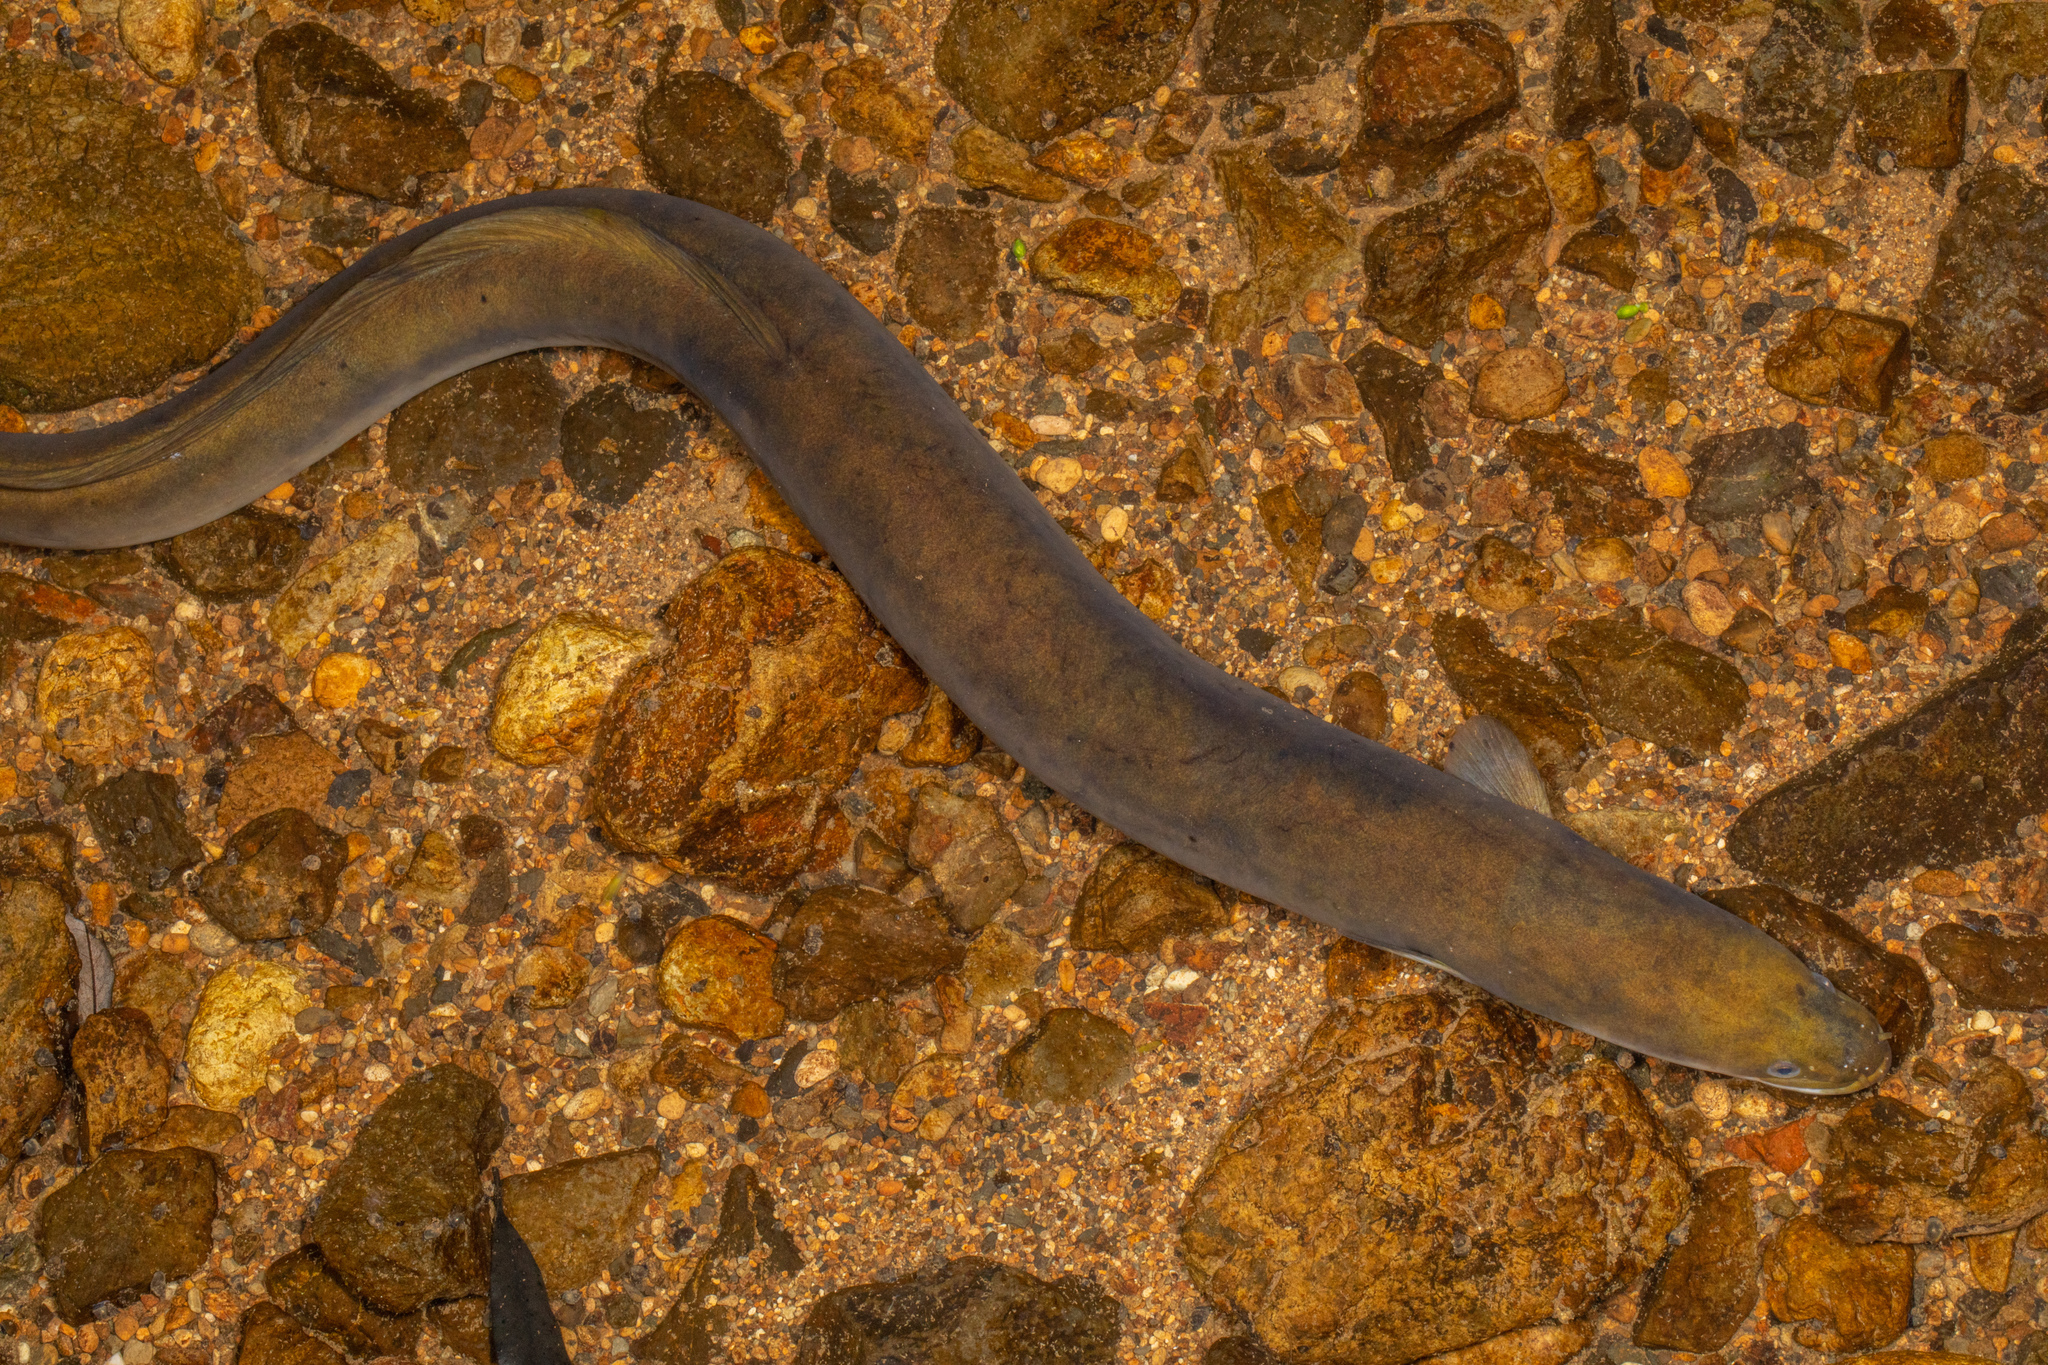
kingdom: Animalia
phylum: Chordata
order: Anguilliformes
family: Anguillidae
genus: Anguilla
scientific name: Anguilla dieffenbachii
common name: New zealand longfin eel
